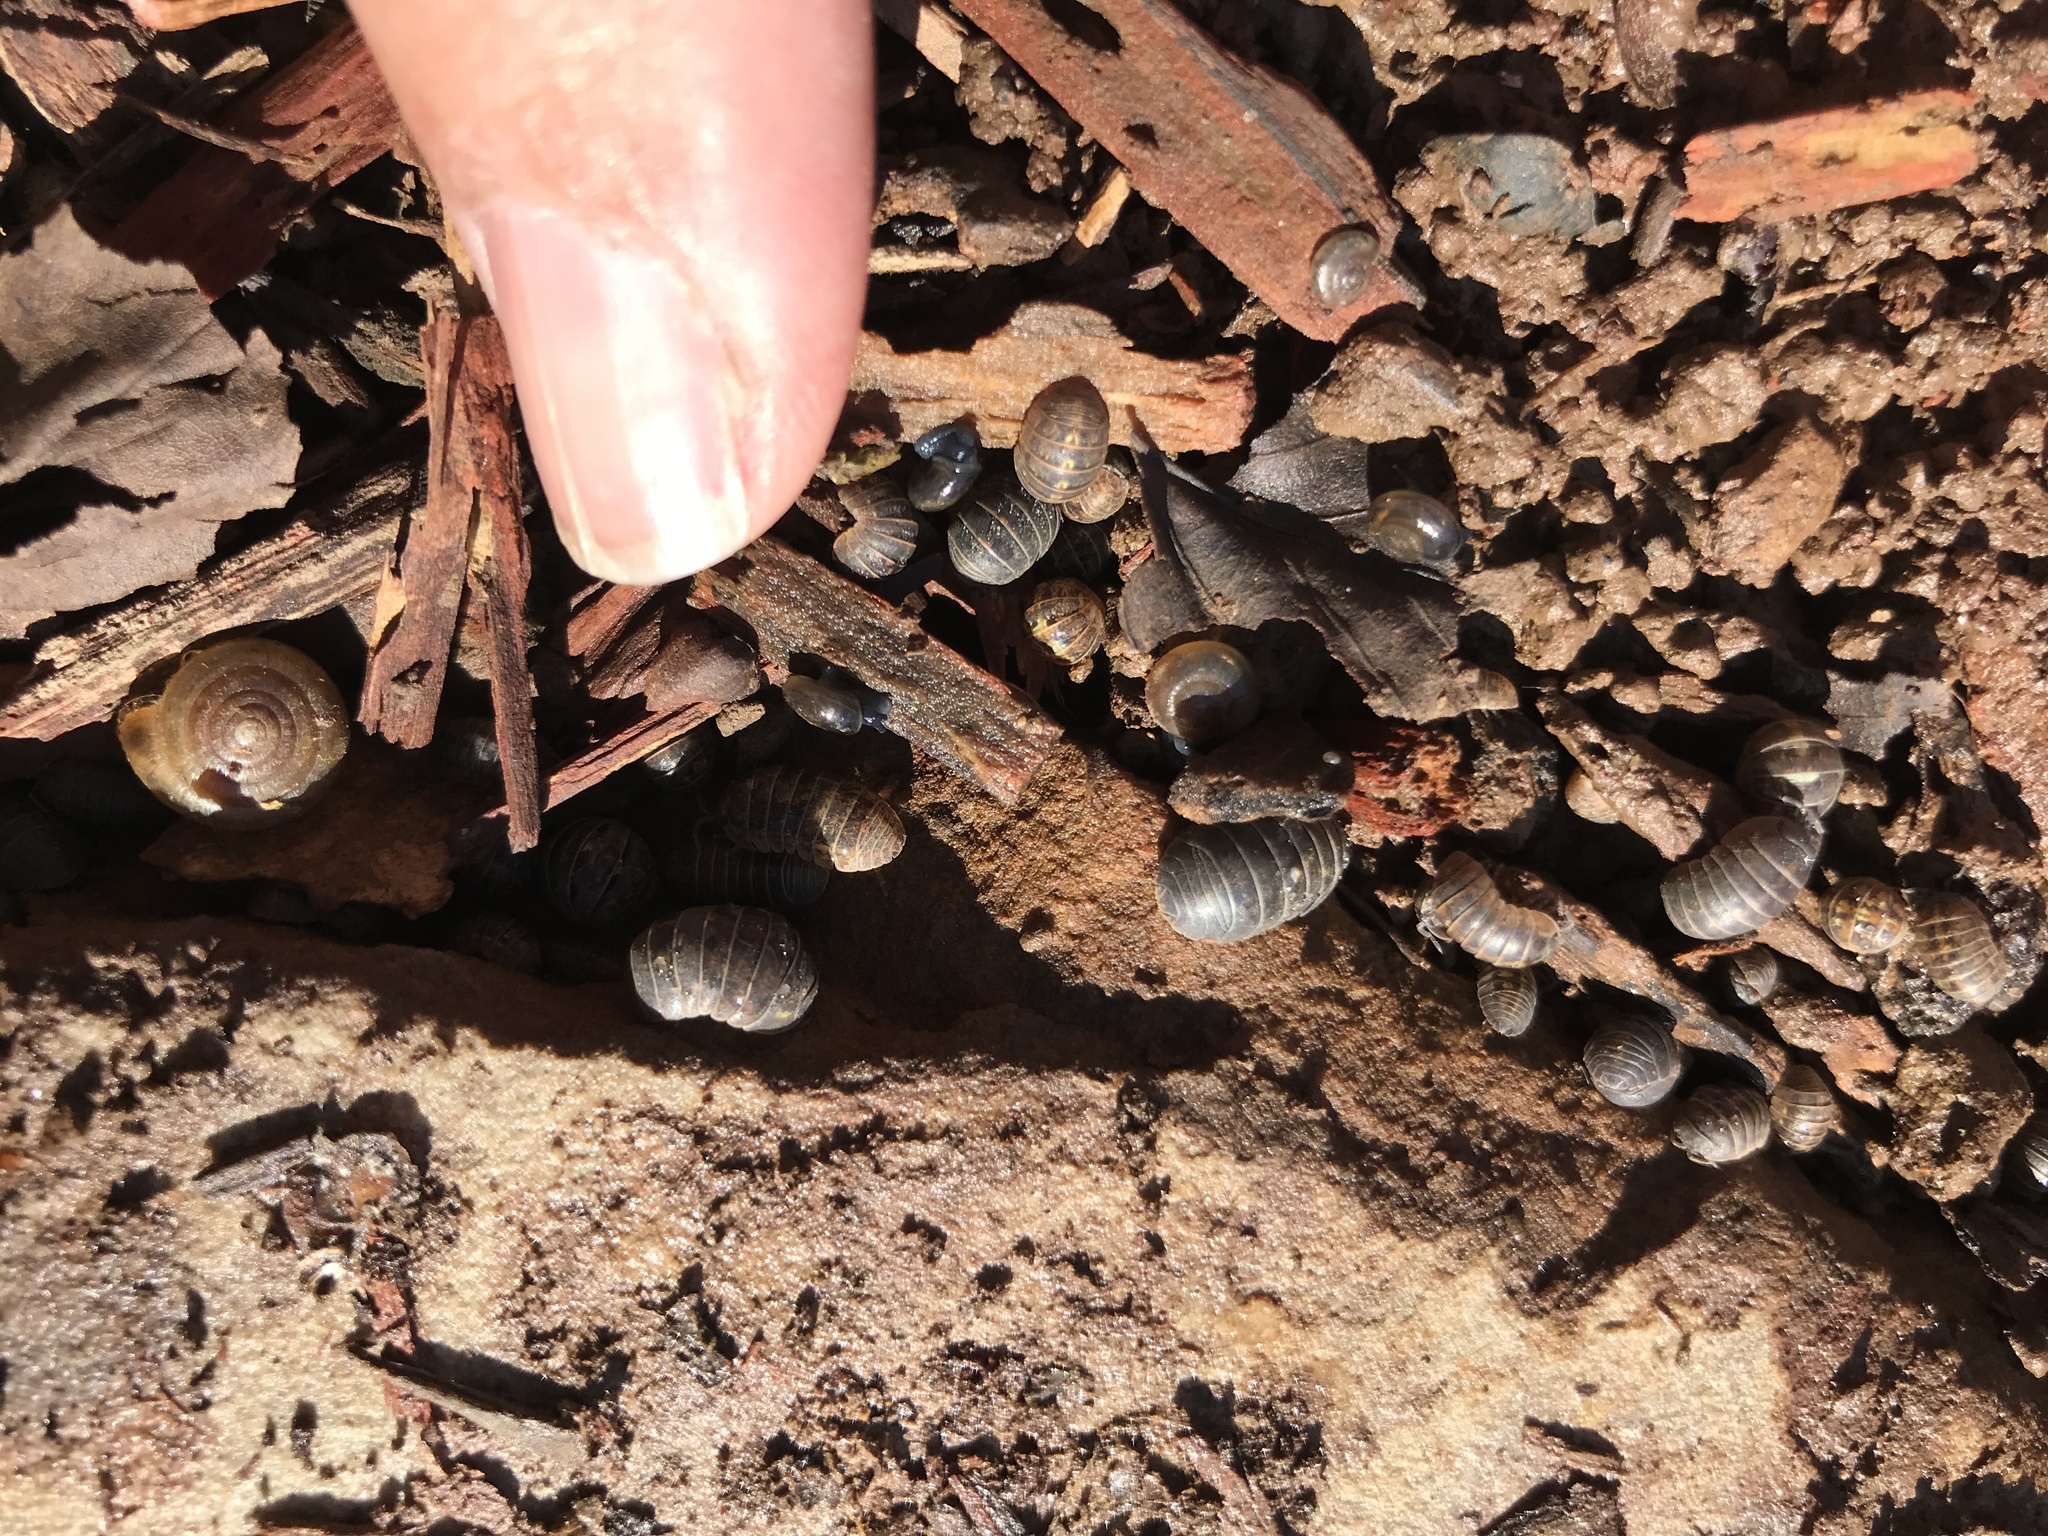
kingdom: Animalia
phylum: Arthropoda
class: Malacostraca
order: Isopoda
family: Armadillidiidae
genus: Armadillidium
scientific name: Armadillidium vulgare
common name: Common pill woodlouse
